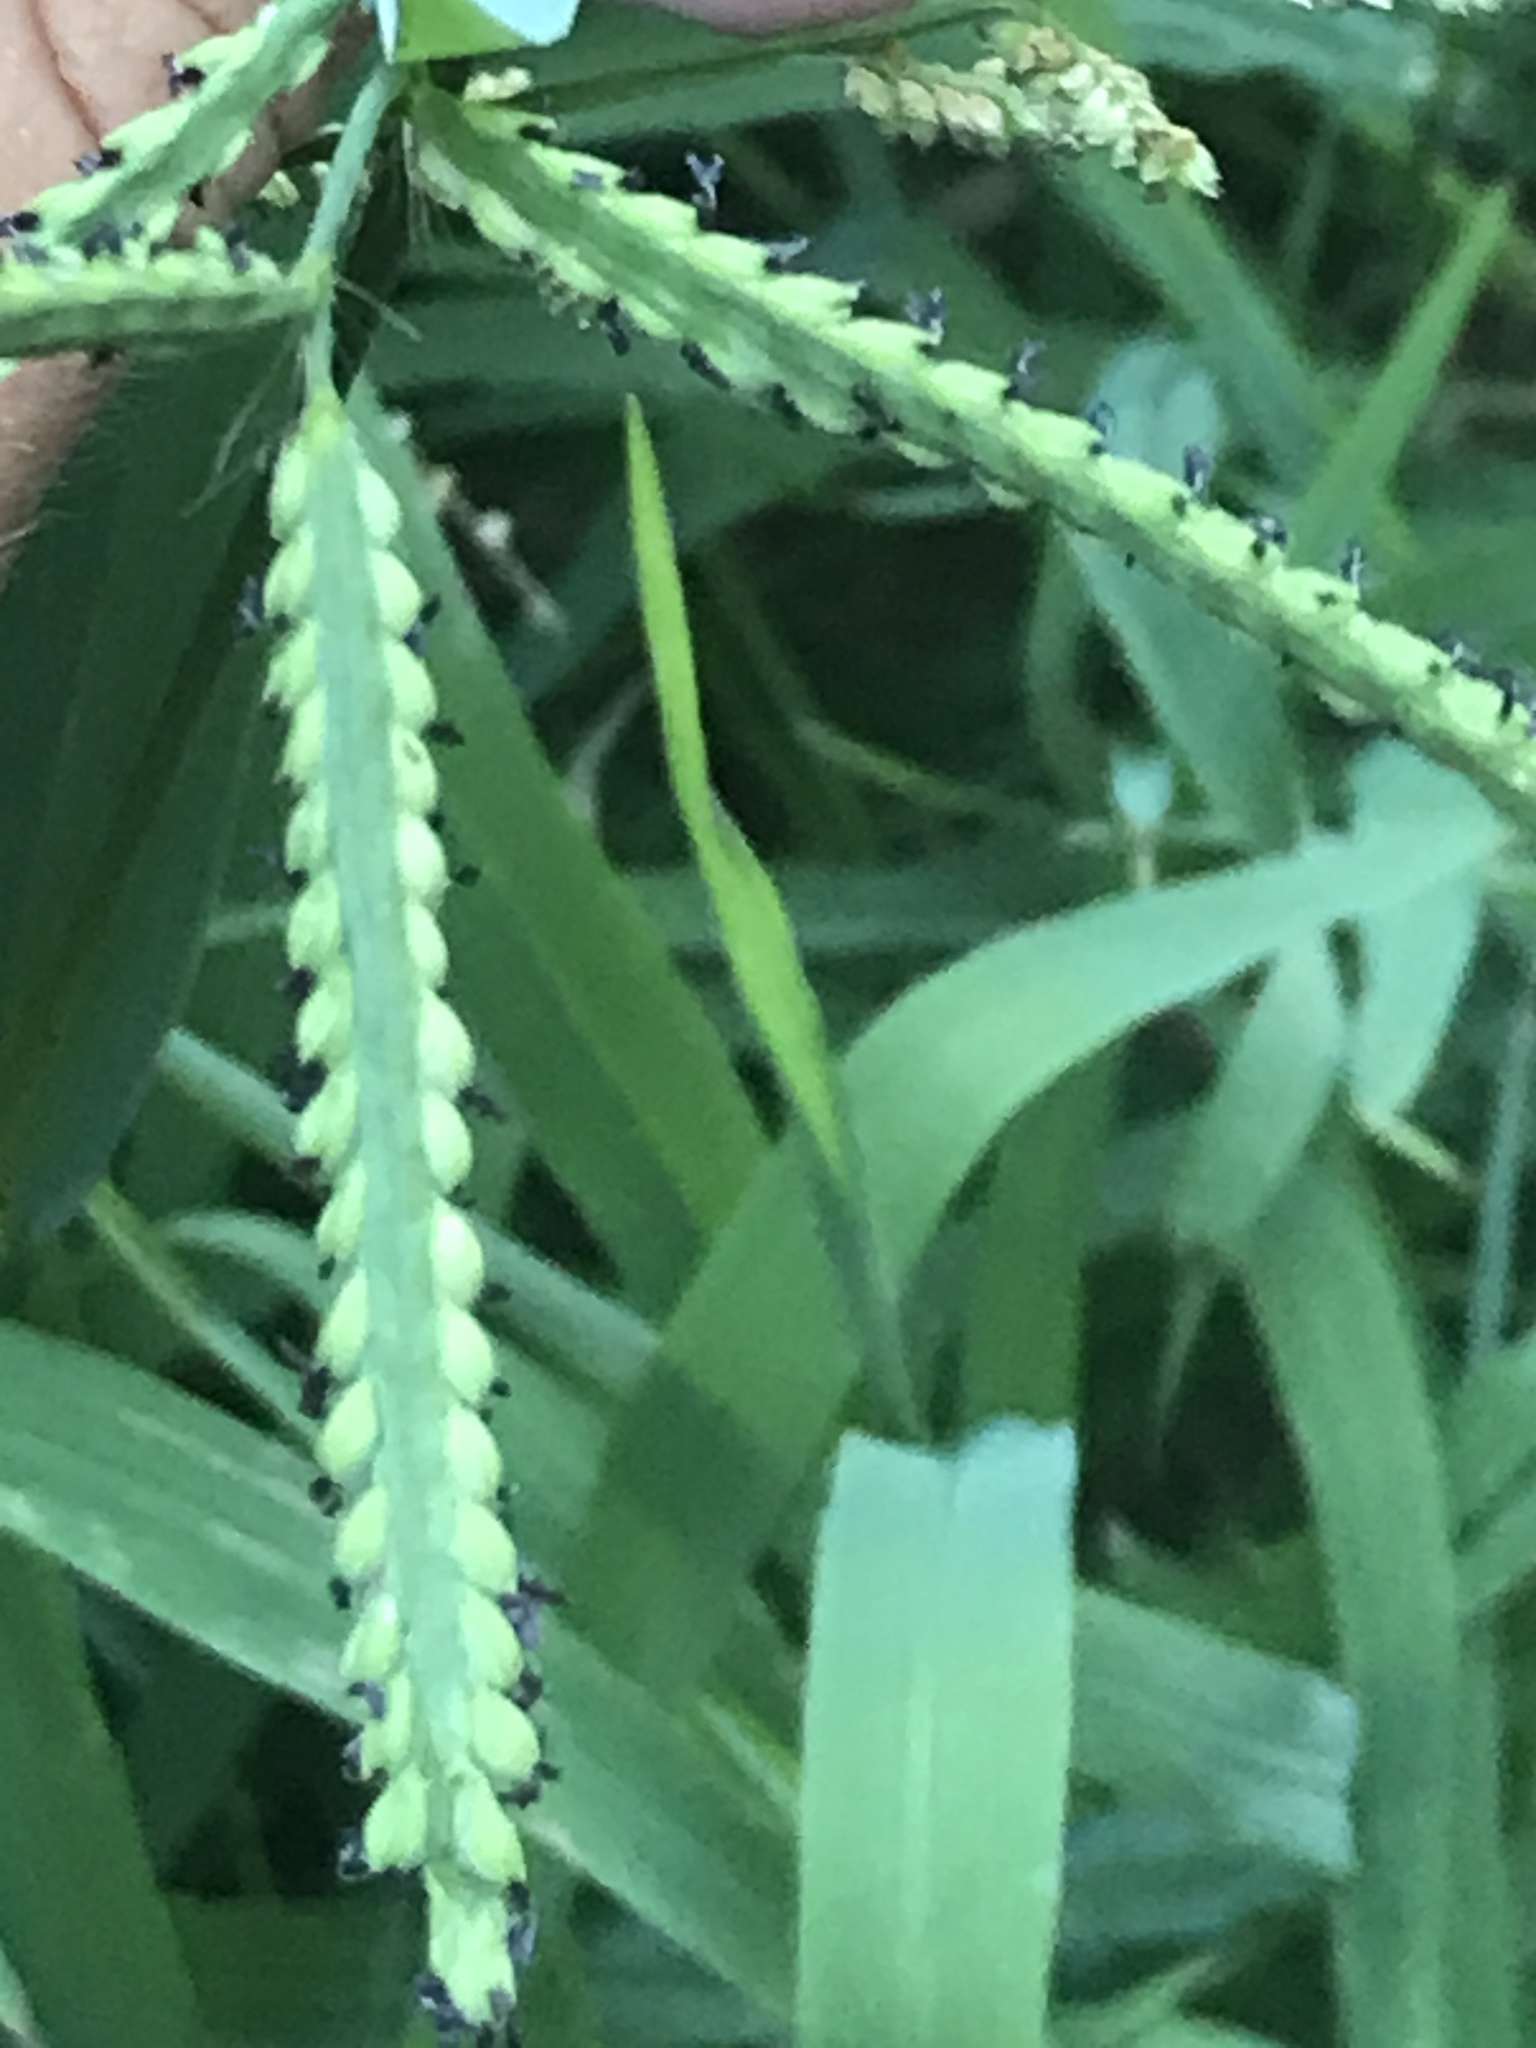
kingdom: Plantae
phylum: Tracheophyta
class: Liliopsida
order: Poales
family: Poaceae
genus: Paspalum
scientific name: Paspalum pubiflorum
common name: Hairy-seed paspalum
